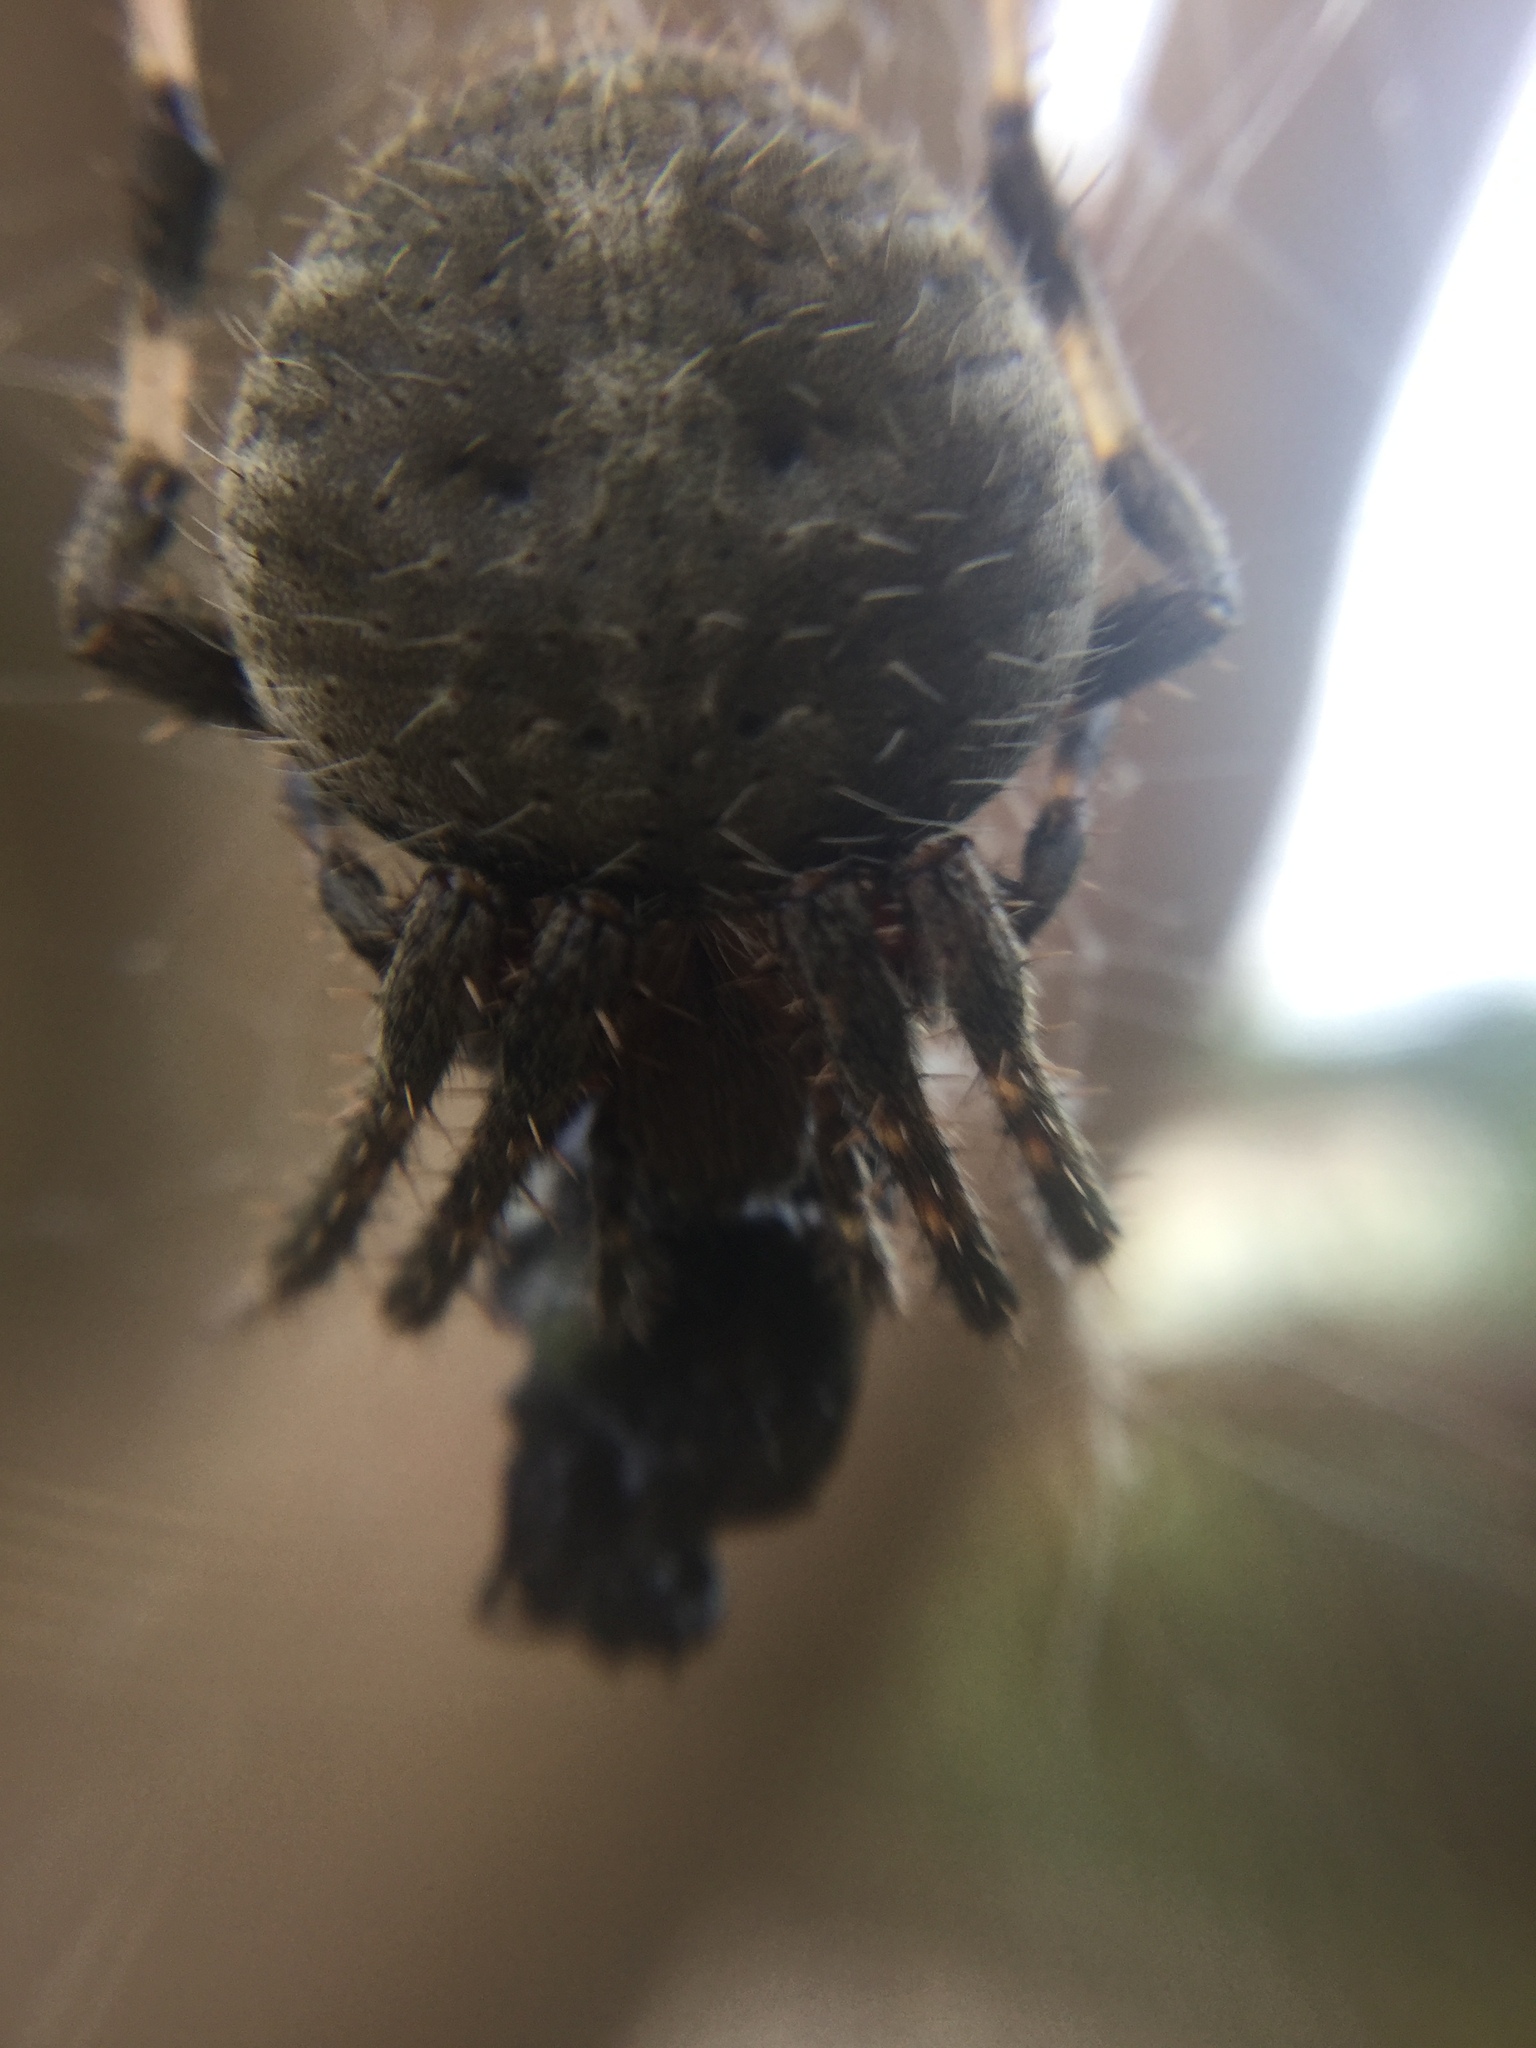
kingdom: Animalia
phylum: Arthropoda
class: Arachnida
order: Araneae
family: Araneidae
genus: Neoscona
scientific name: Neoscona crucifera
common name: Spotted orbweaver
